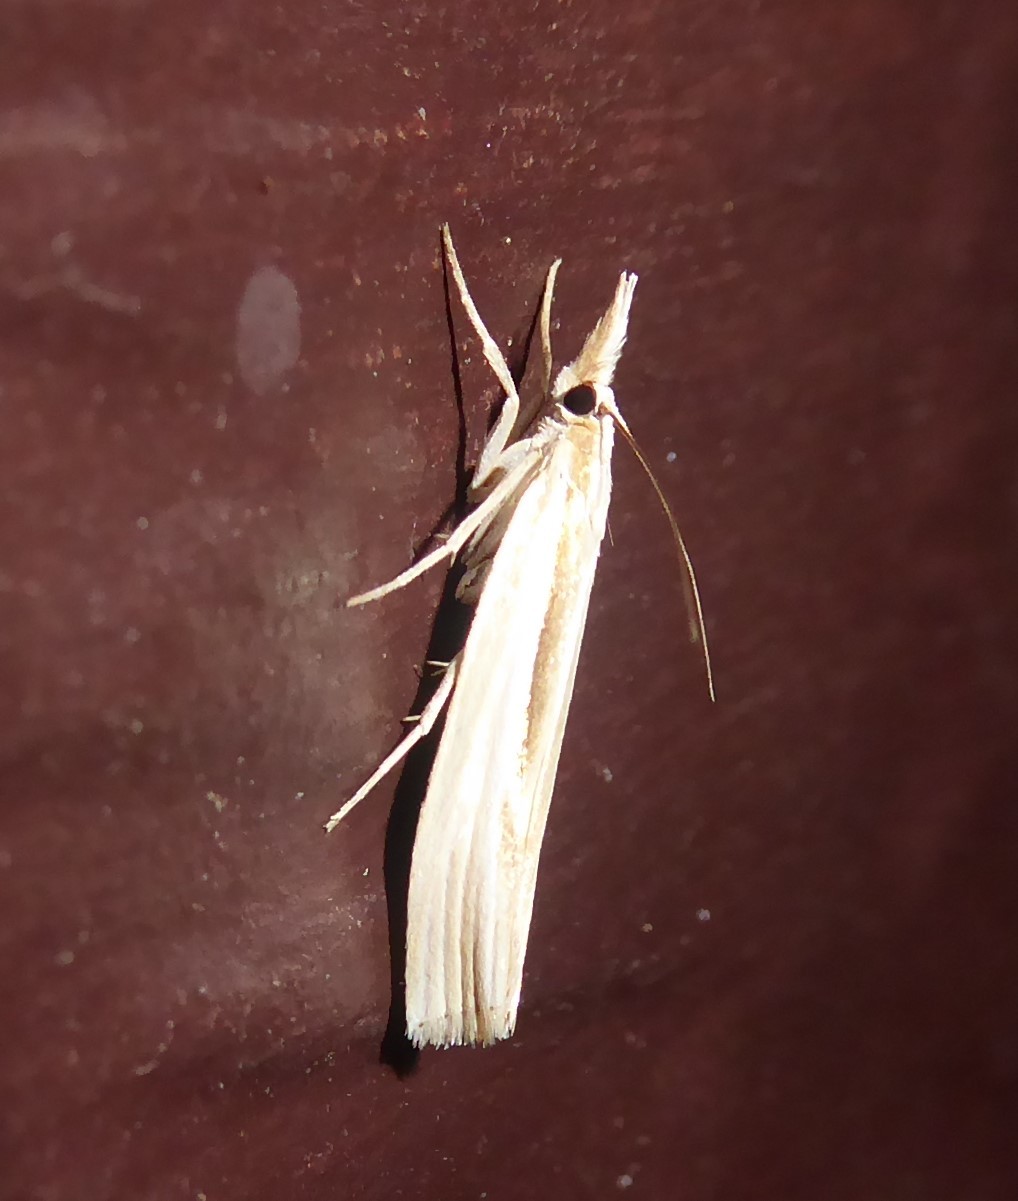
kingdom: Animalia
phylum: Arthropoda
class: Insecta
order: Lepidoptera
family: Crambidae
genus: Orocrambus
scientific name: Orocrambus ramosellus
